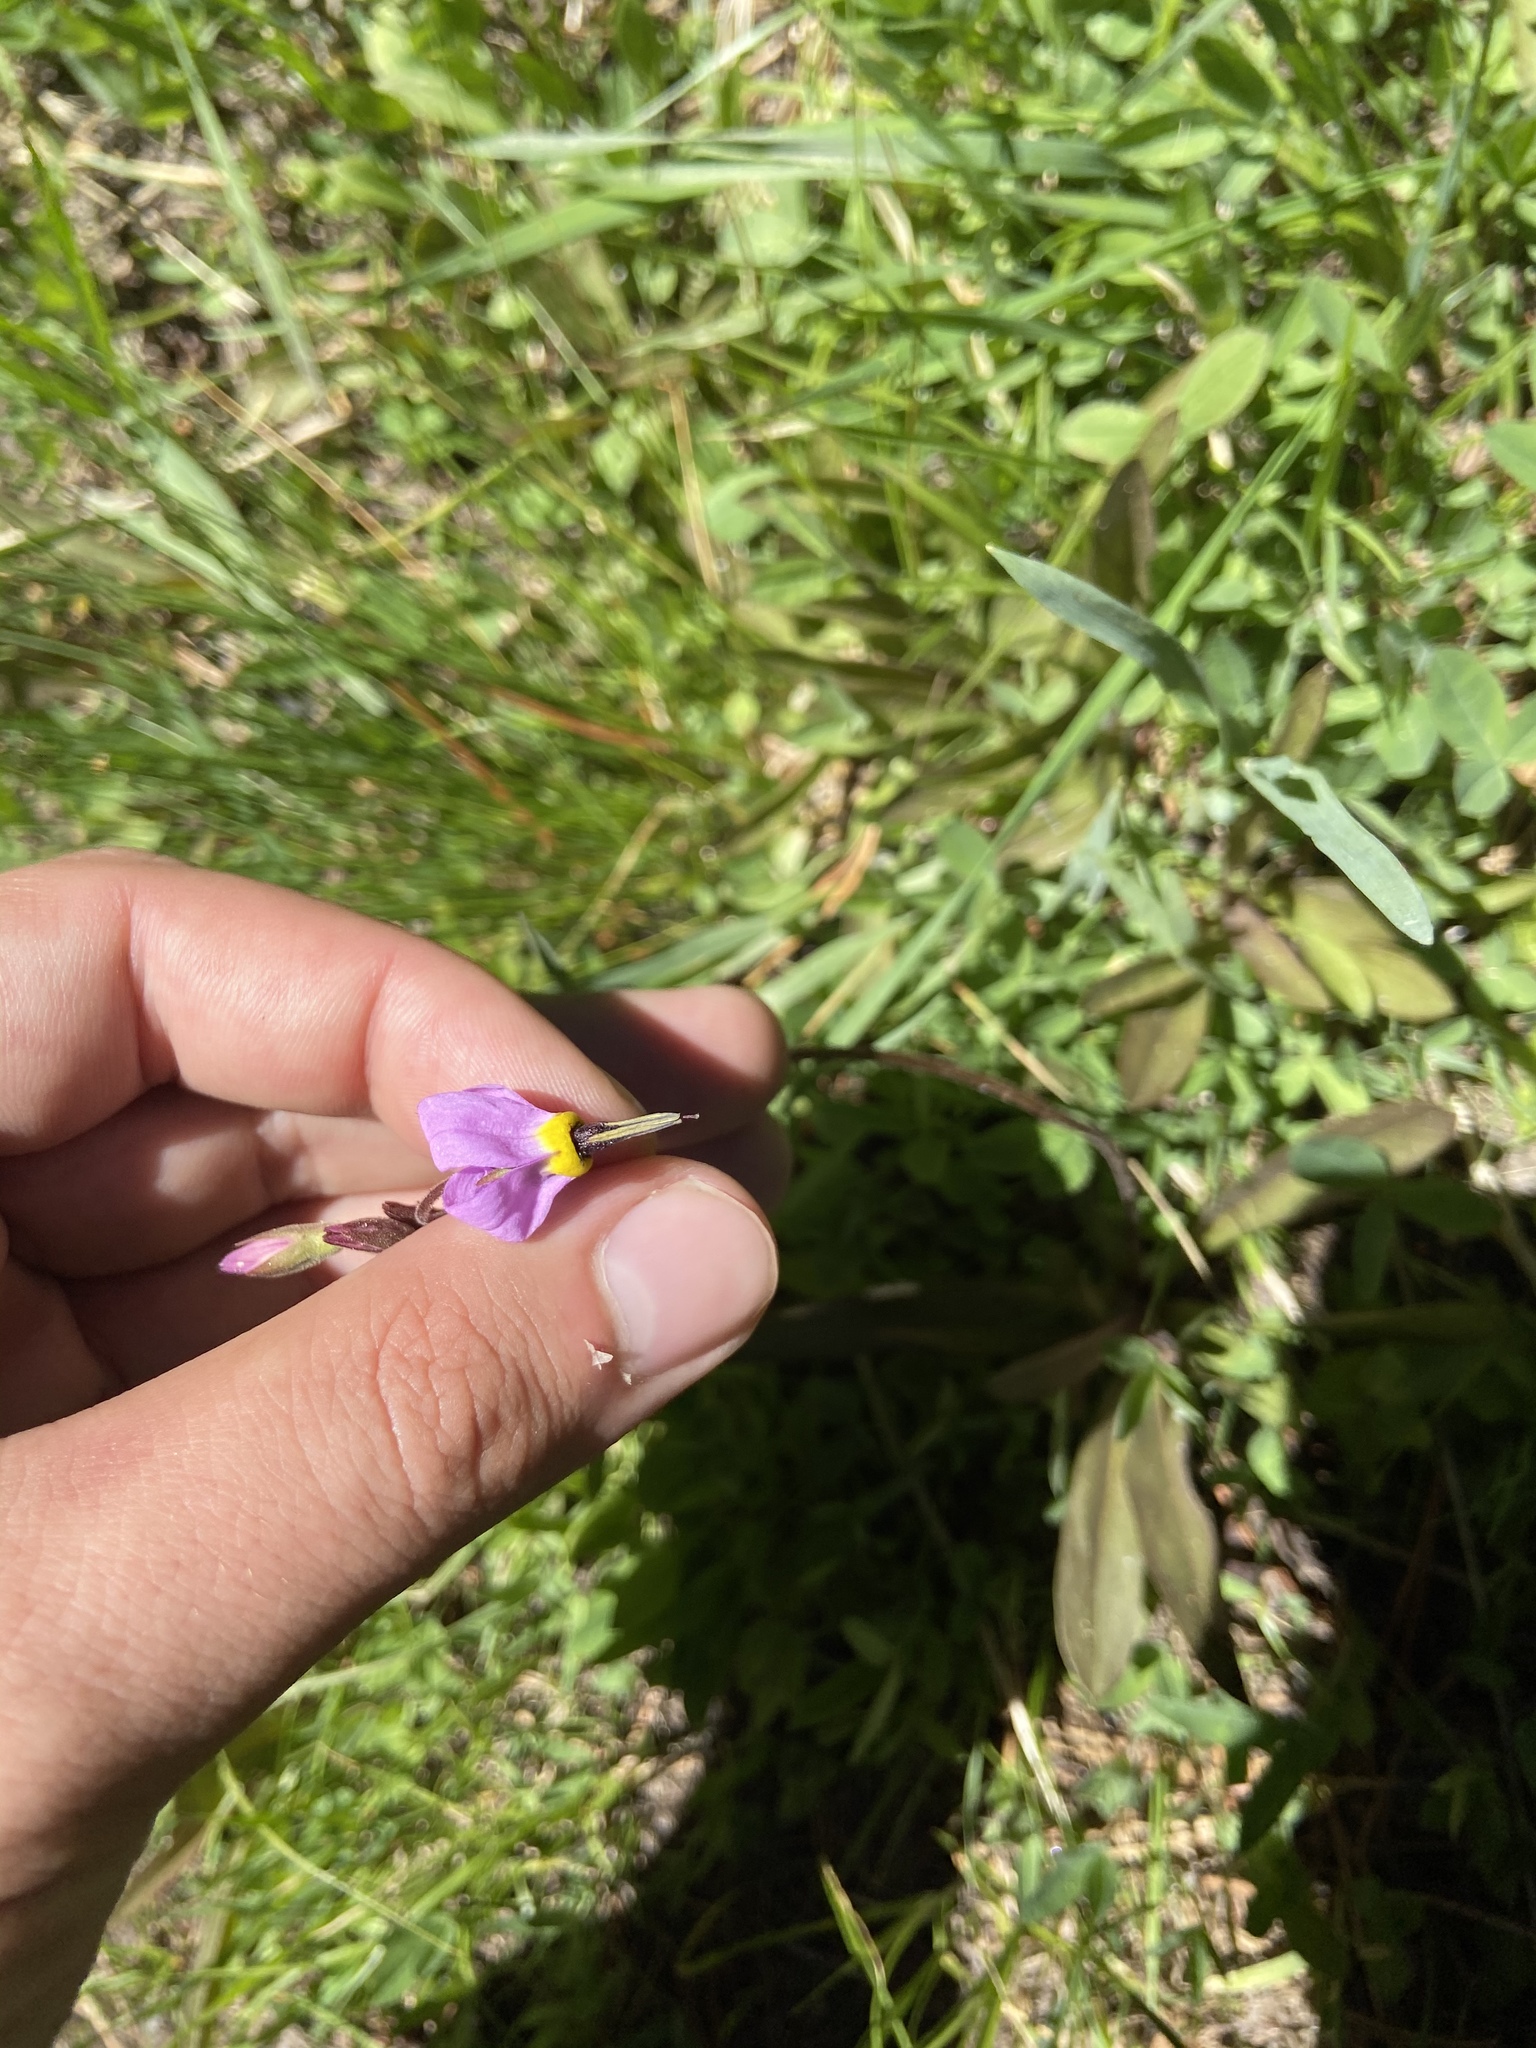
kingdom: Plantae
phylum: Tracheophyta
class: Magnoliopsida
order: Ericales
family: Primulaceae
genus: Dodecatheon
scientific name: Dodecatheon jeffreyanum
